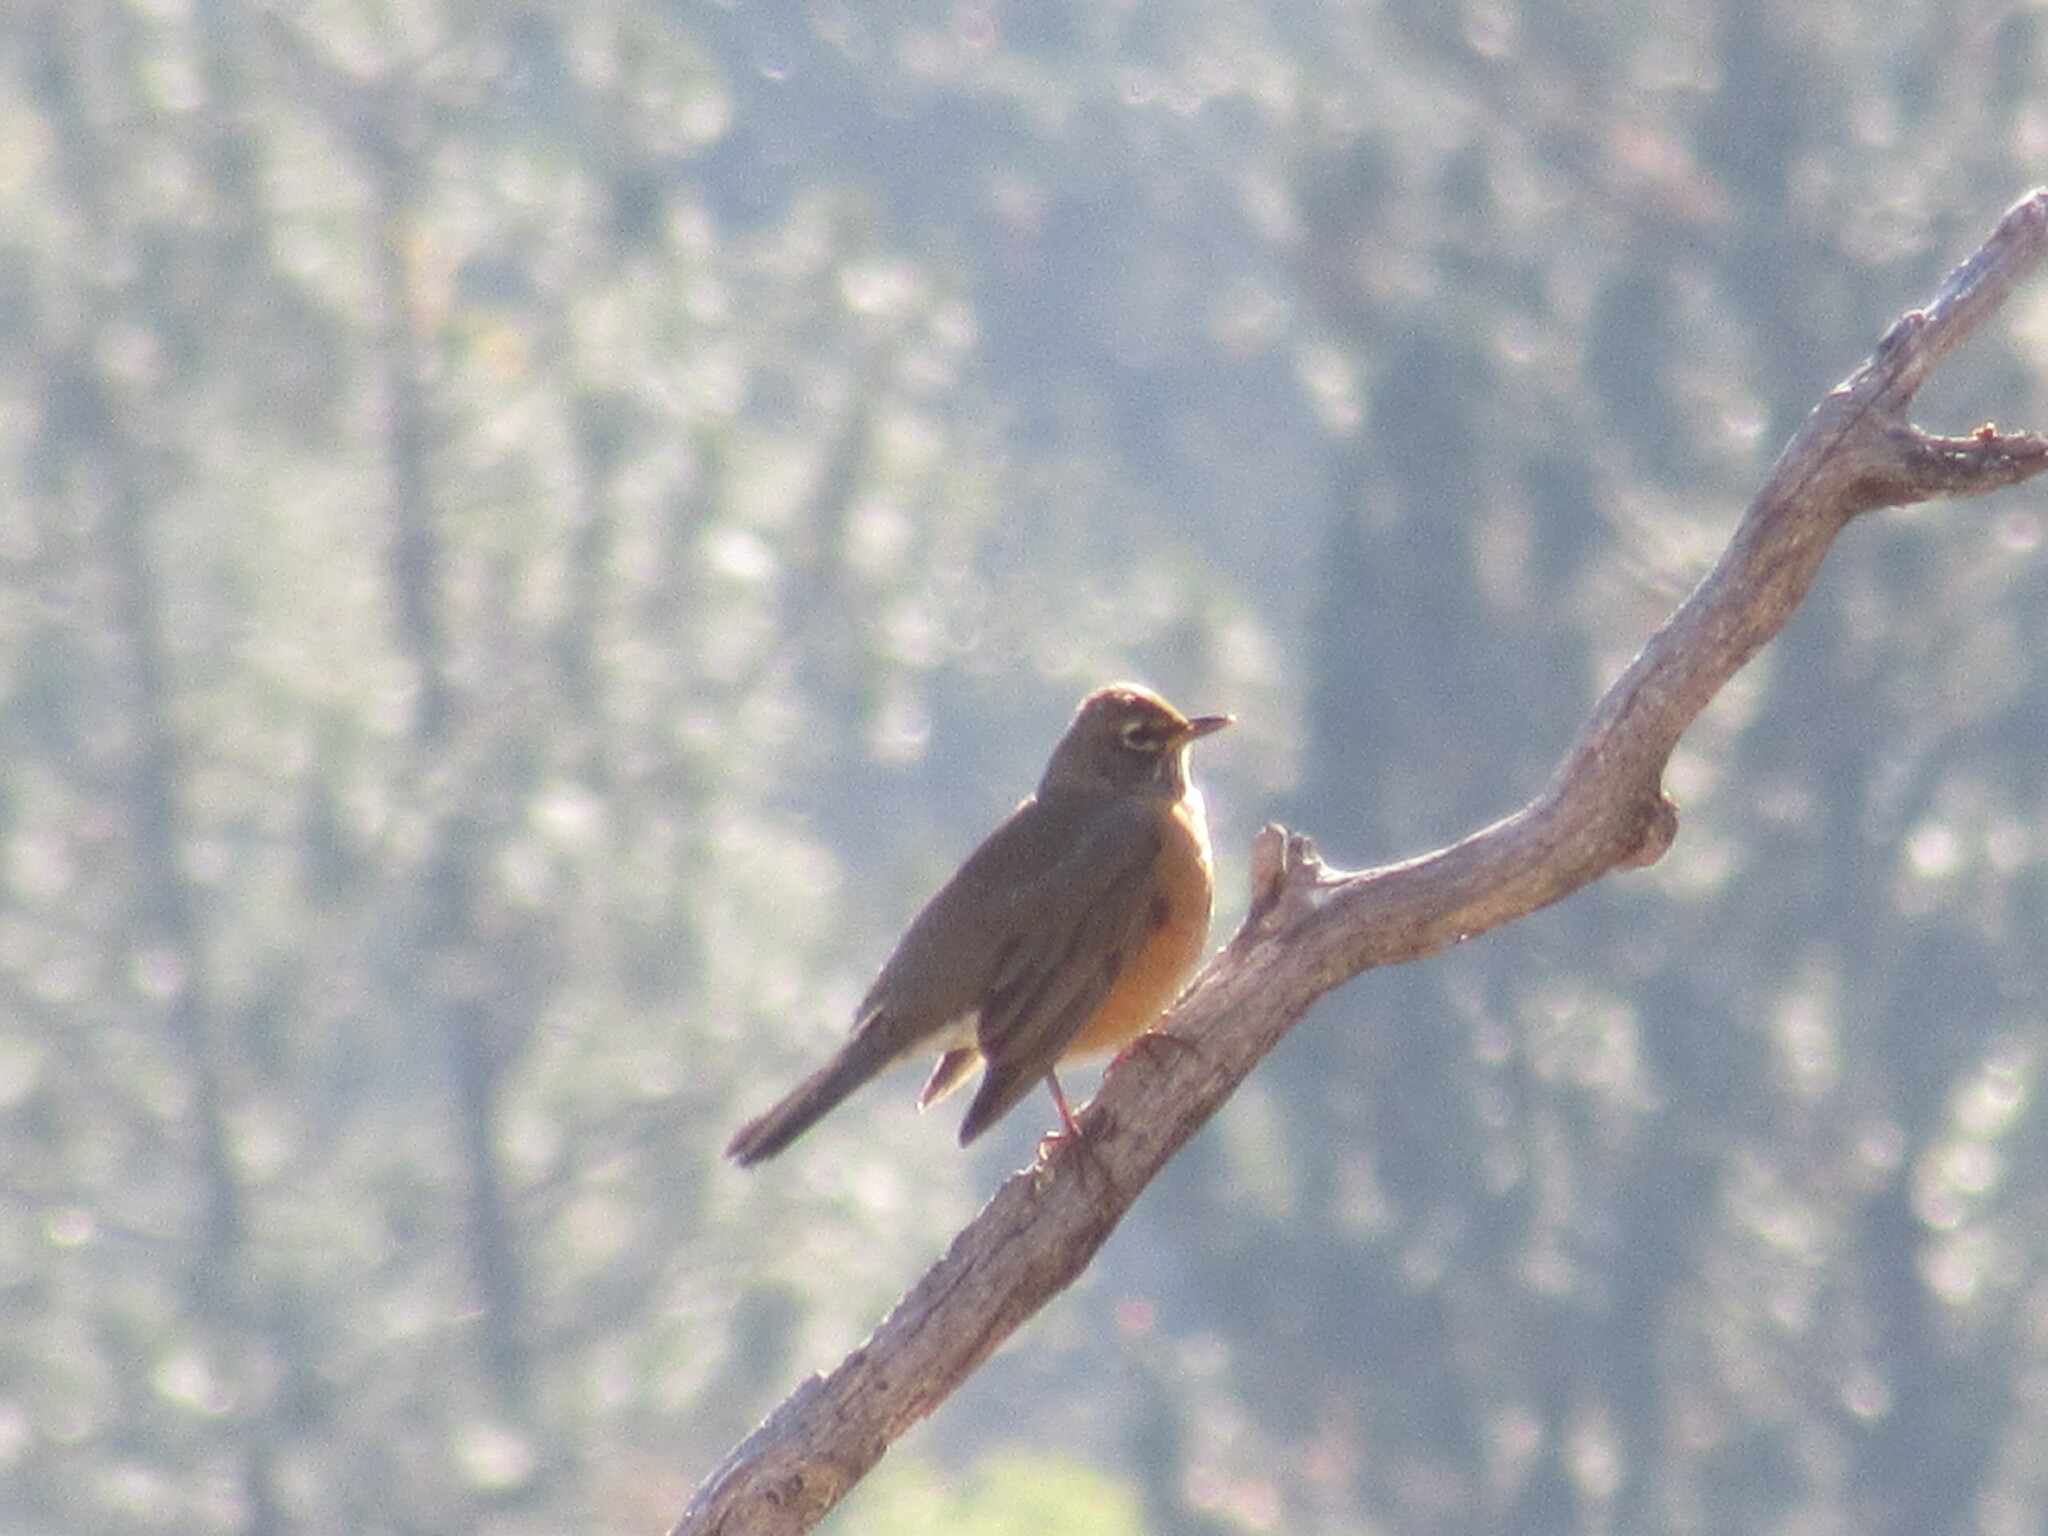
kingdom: Animalia
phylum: Chordata
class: Aves
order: Passeriformes
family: Turdidae
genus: Turdus
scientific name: Turdus migratorius
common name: American robin
